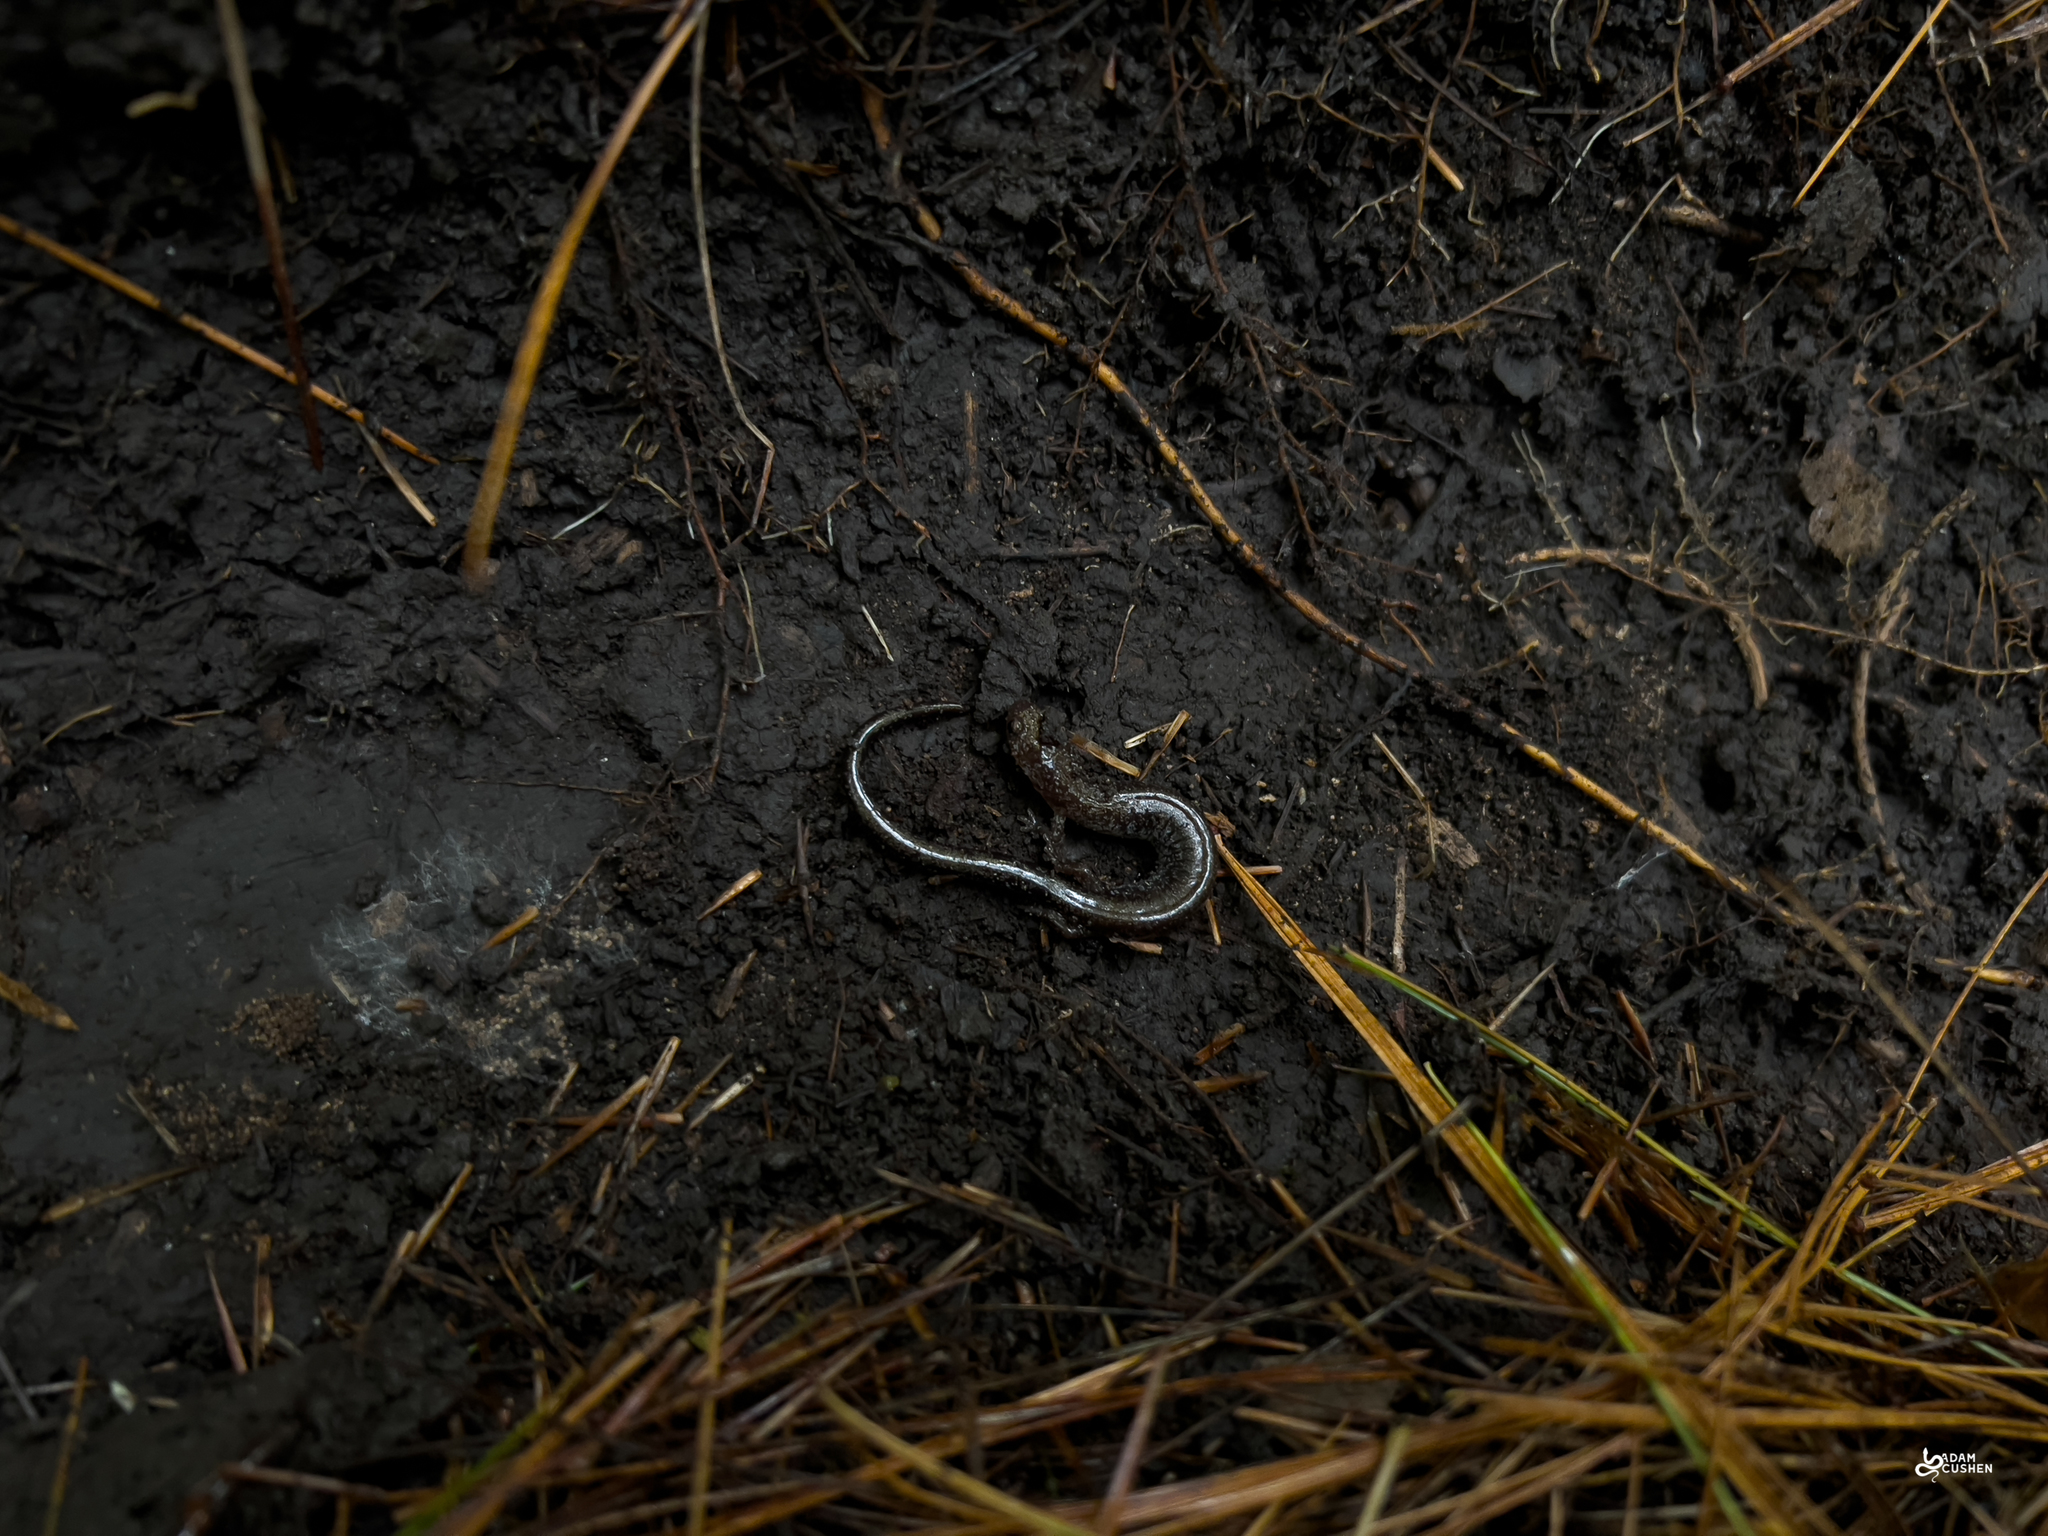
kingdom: Animalia
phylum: Chordata
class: Amphibia
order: Caudata
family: Plethodontidae
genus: Plethodon
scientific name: Plethodon cinereus
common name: Redback salamander
